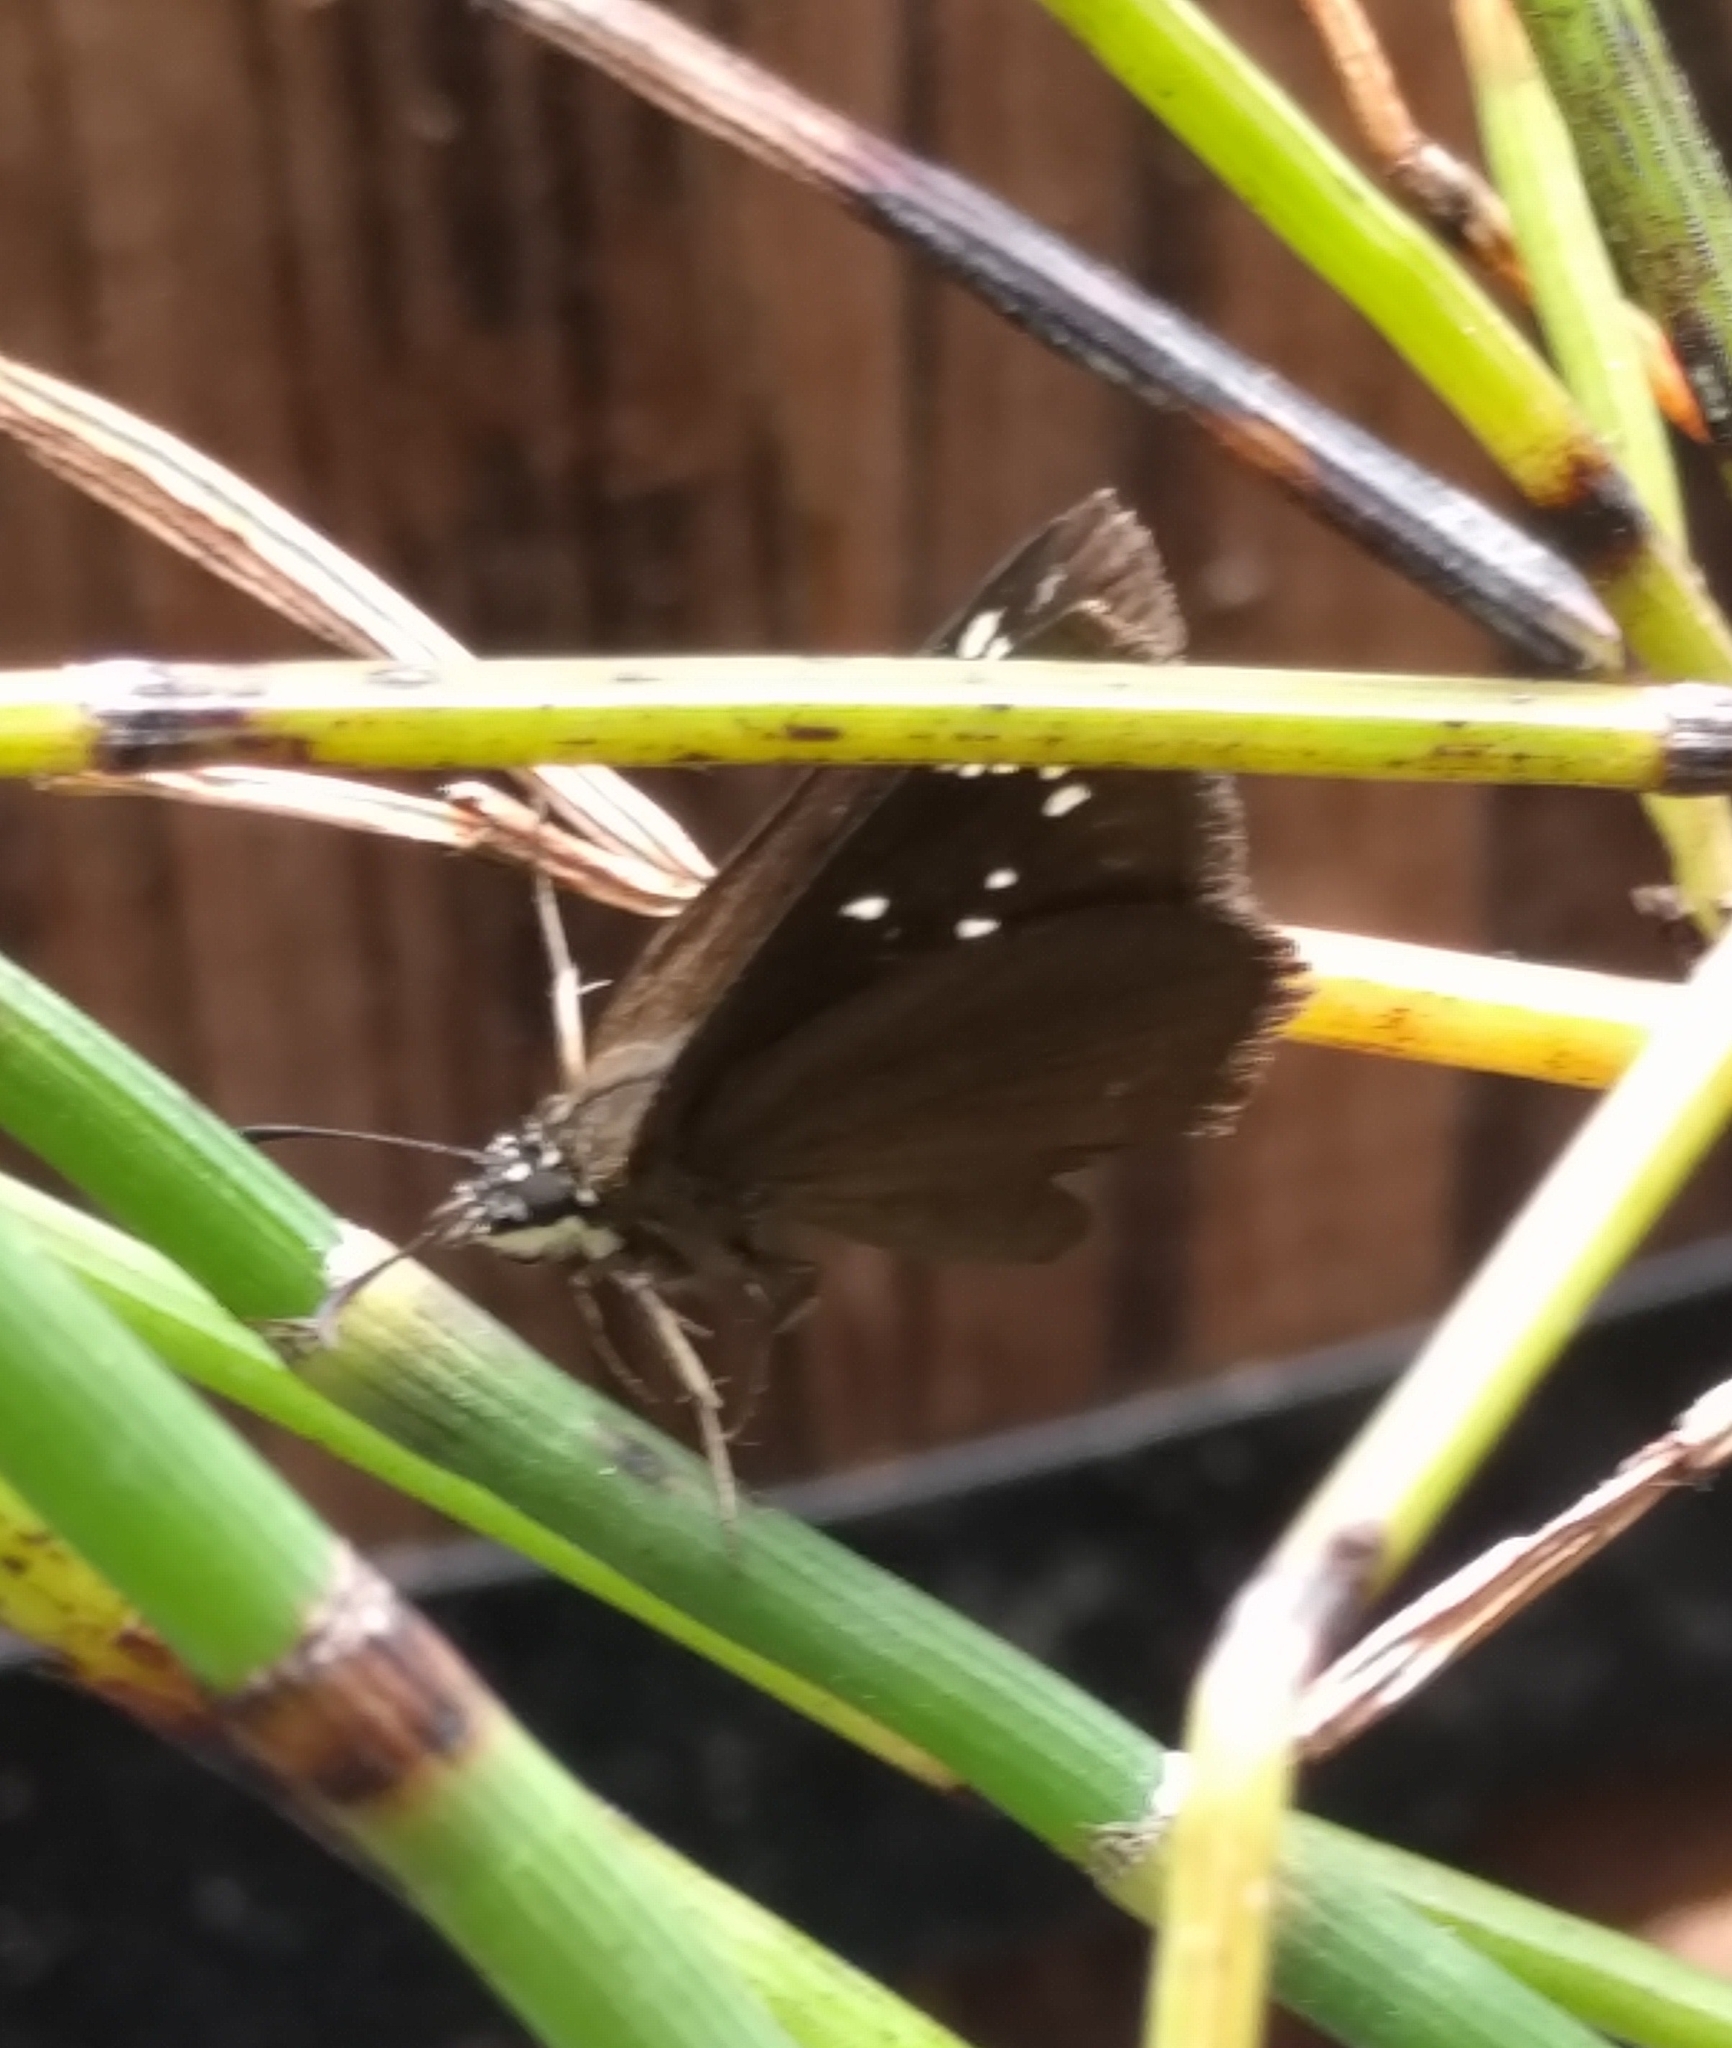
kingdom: Animalia
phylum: Arthropoda
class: Insecta
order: Lepidoptera
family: Hesperiidae
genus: Pholisora
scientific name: Pholisora catullus
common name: Common sootywing
